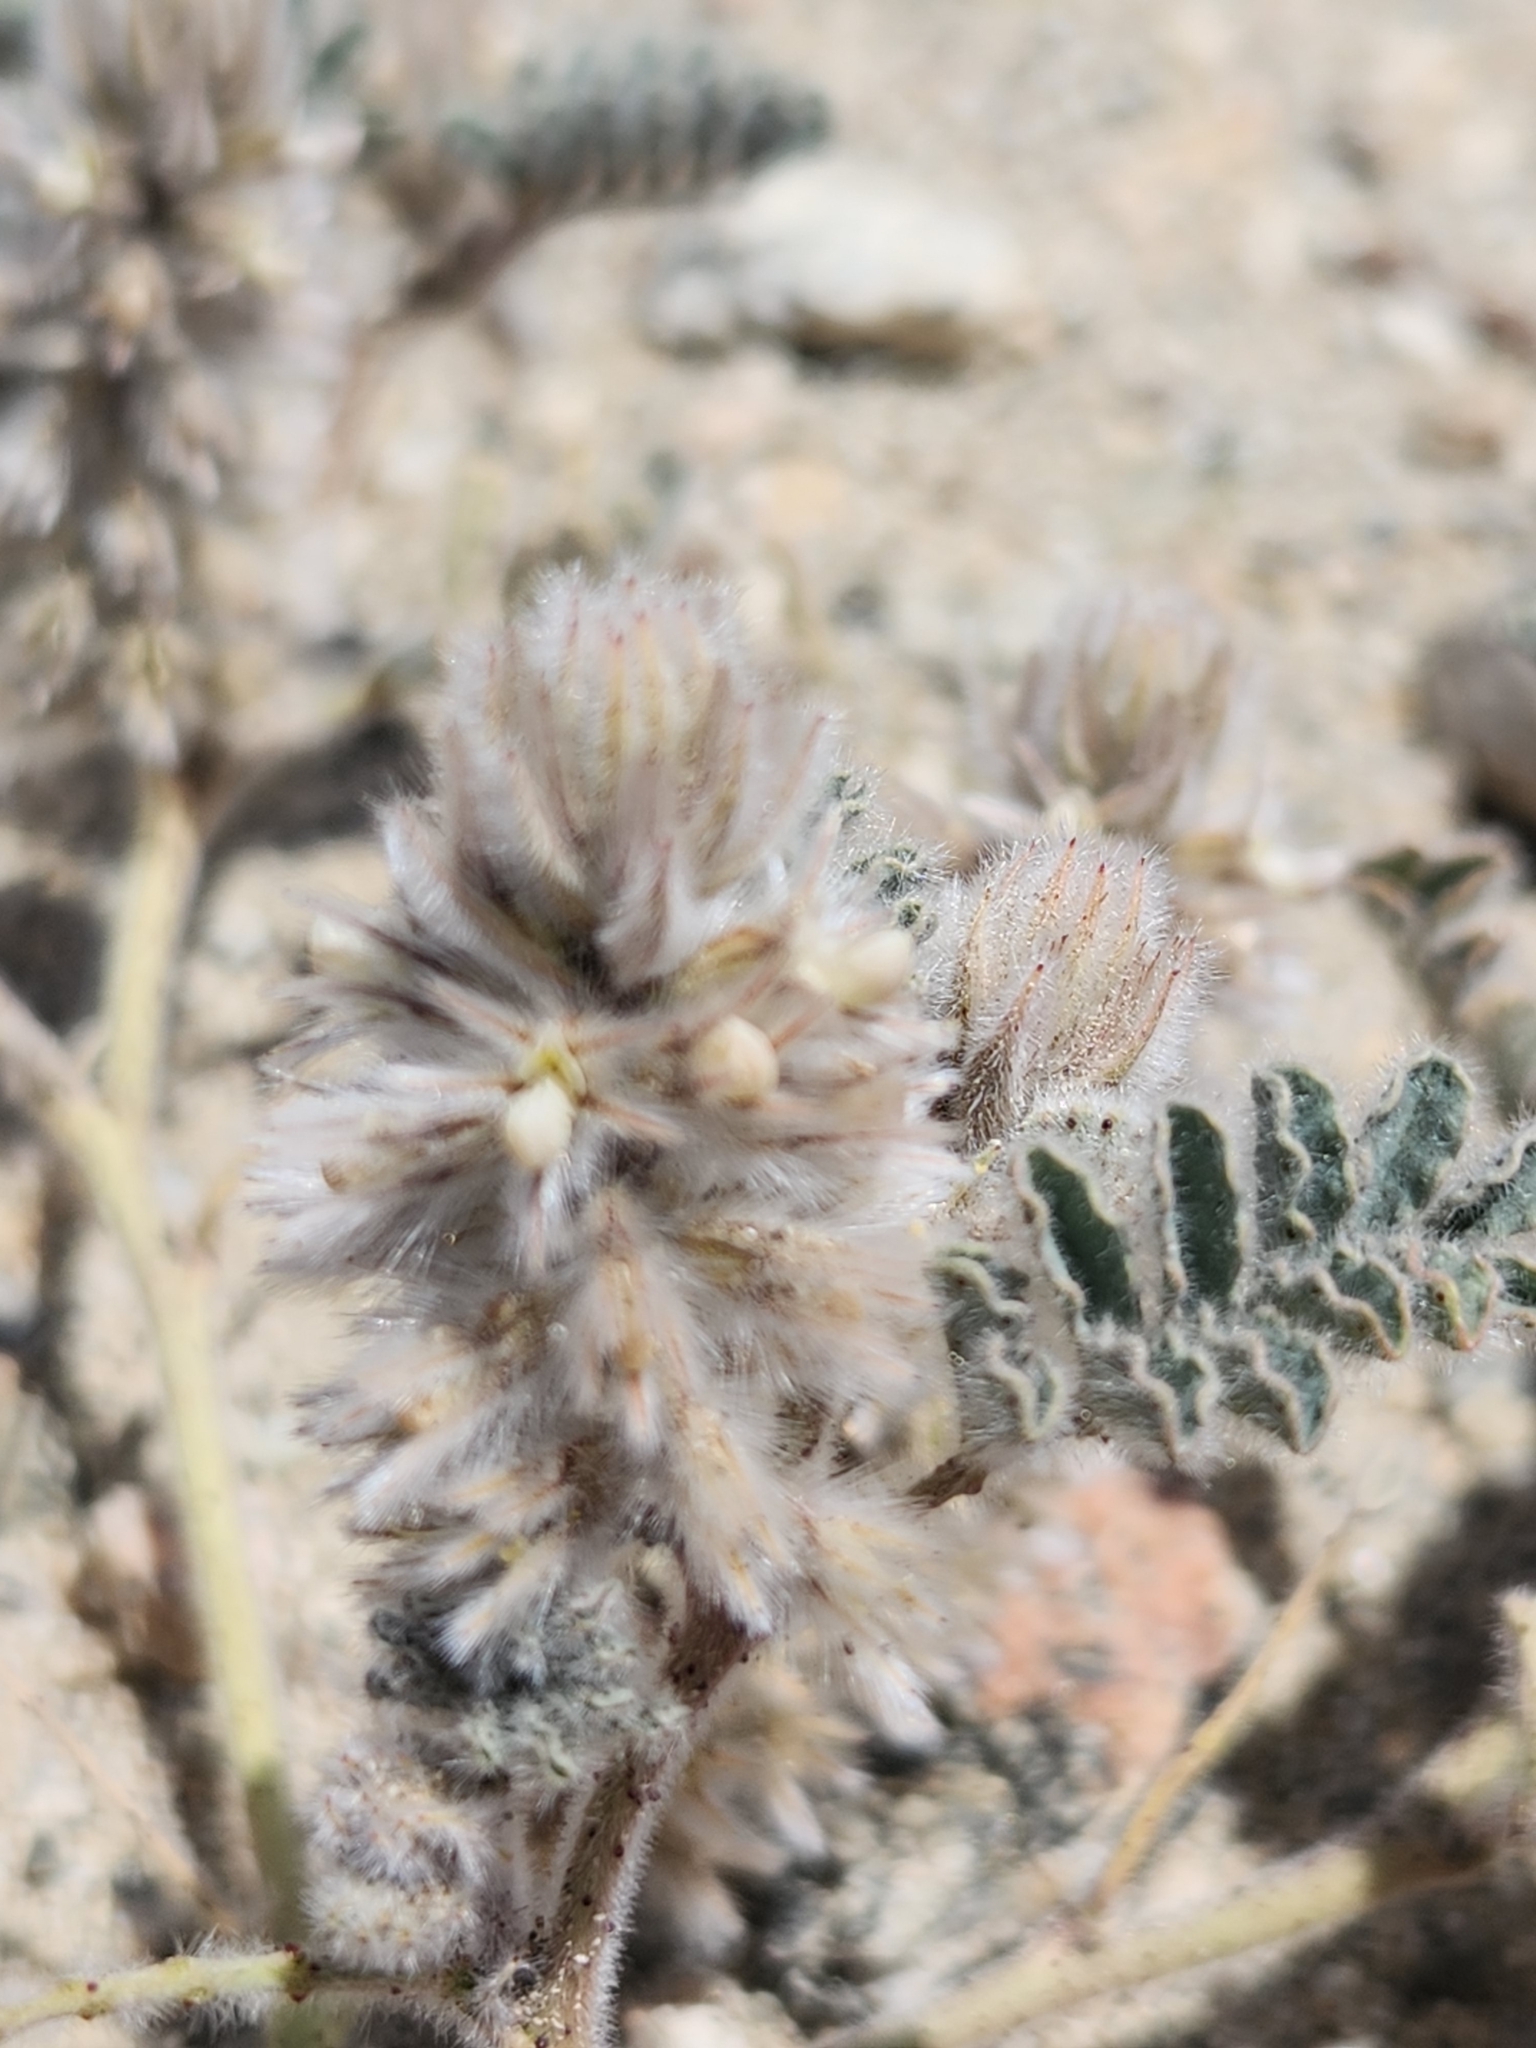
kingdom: Plantae
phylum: Tracheophyta
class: Magnoliopsida
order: Fabales
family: Fabaceae
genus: Dalea
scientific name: Dalea mollissima
